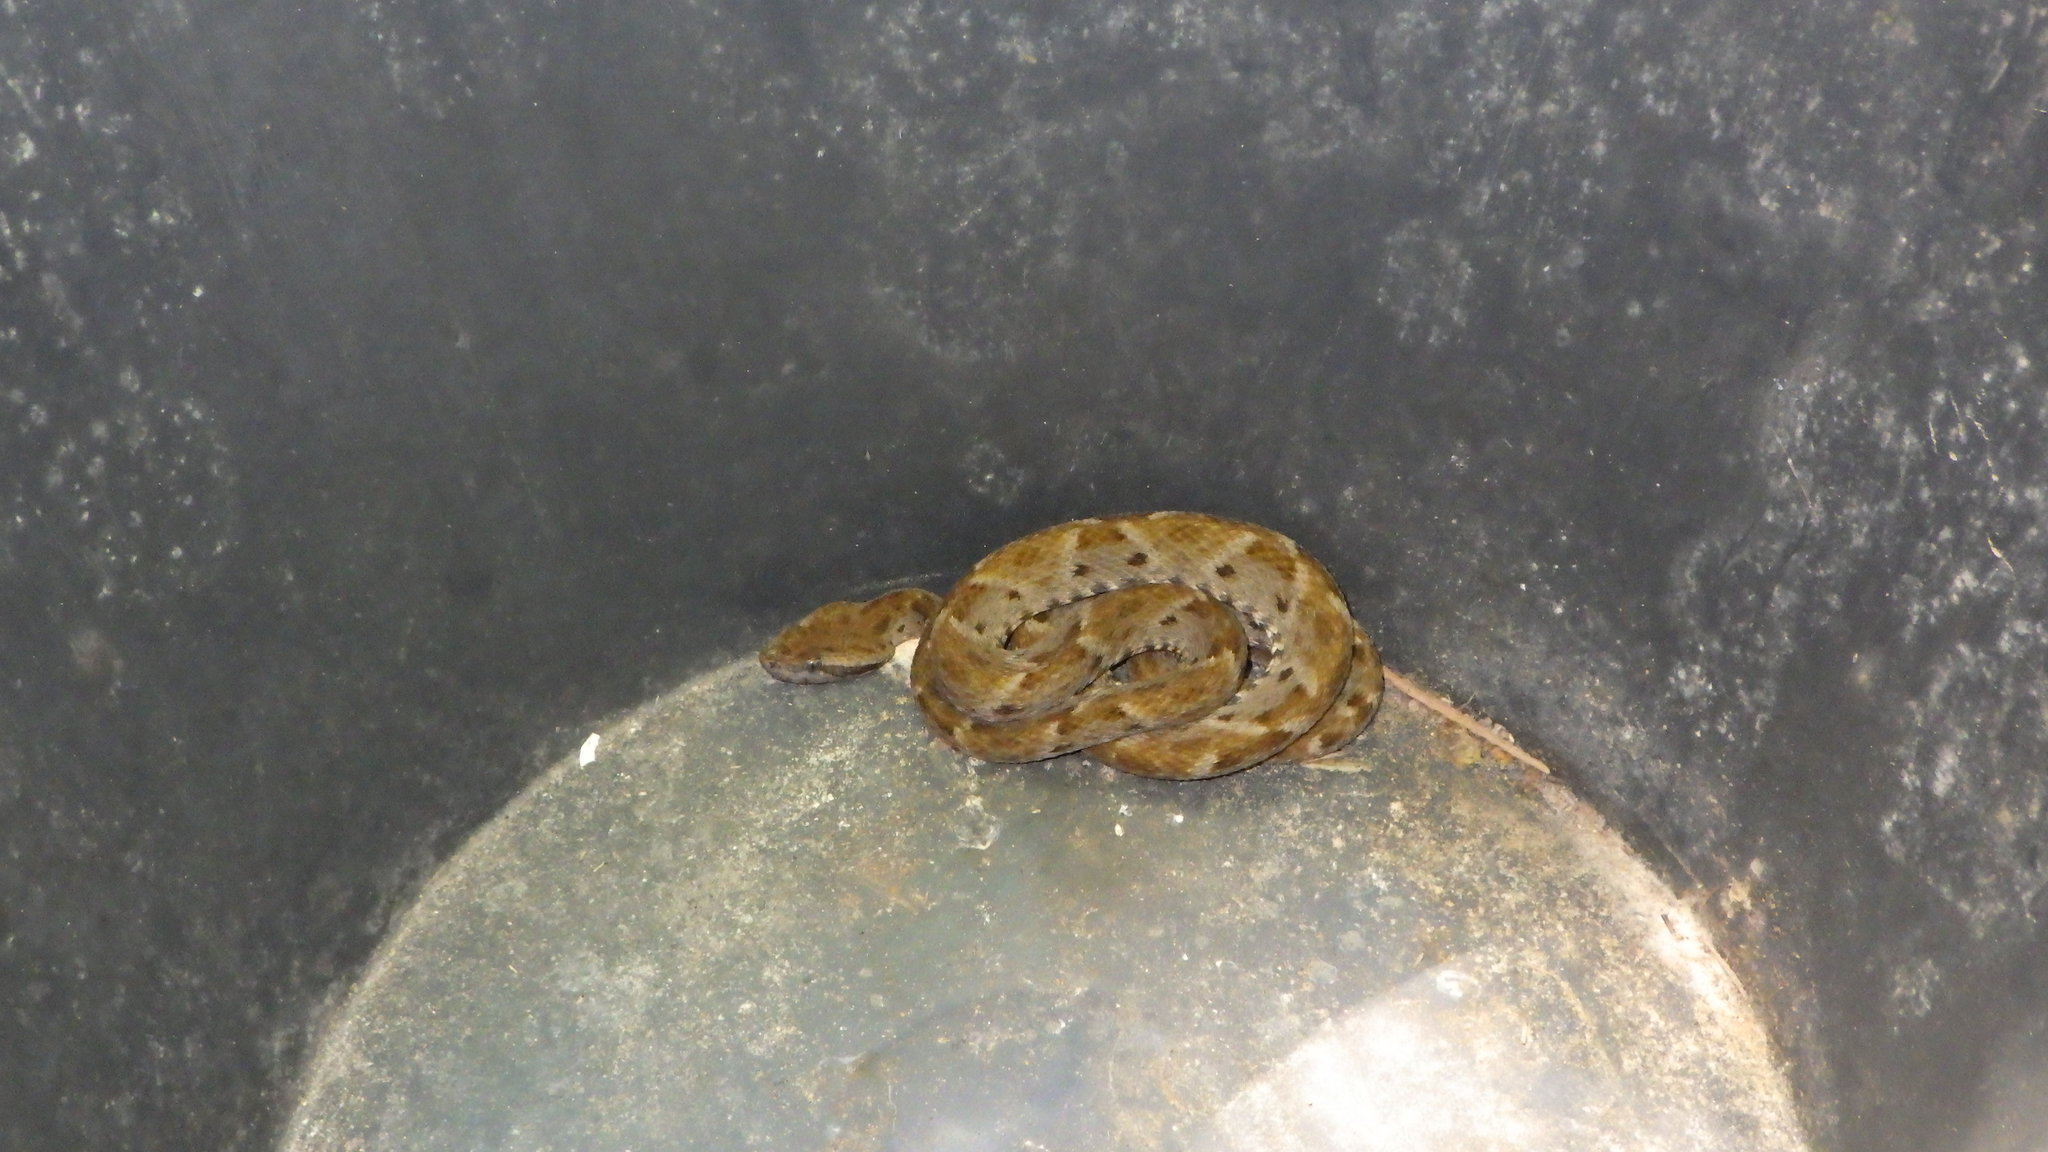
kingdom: Animalia
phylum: Chordata
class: Squamata
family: Viperidae
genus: Bothrops
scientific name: Bothrops atrox
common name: Common lancehead
